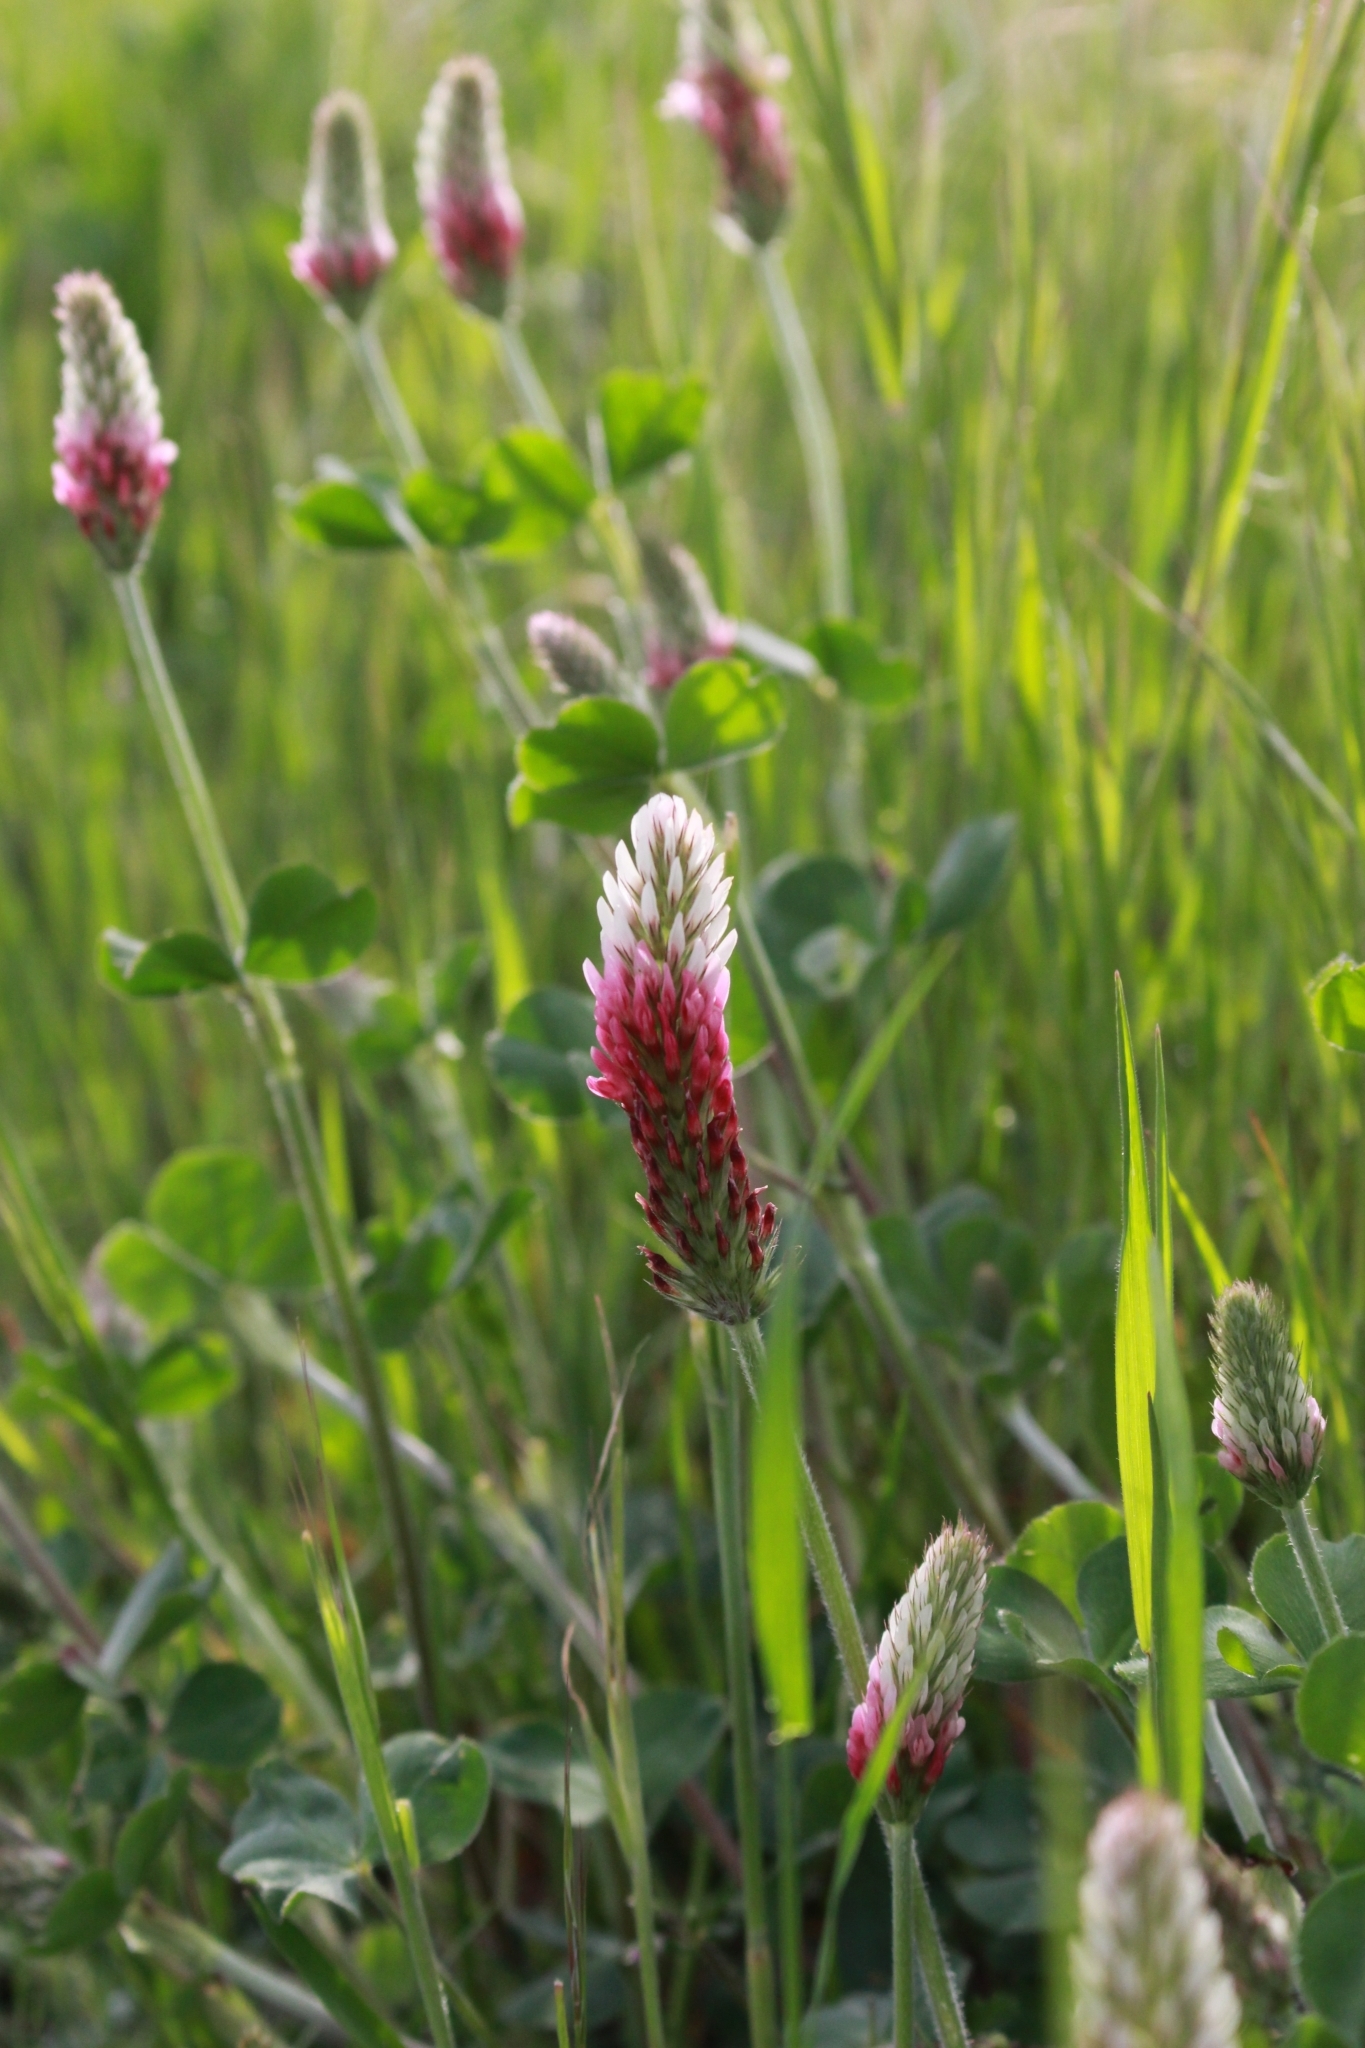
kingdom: Plantae
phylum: Tracheophyta
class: Magnoliopsida
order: Fabales
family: Fabaceae
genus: Trifolium
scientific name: Trifolium incarnatum
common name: Crimson clover
